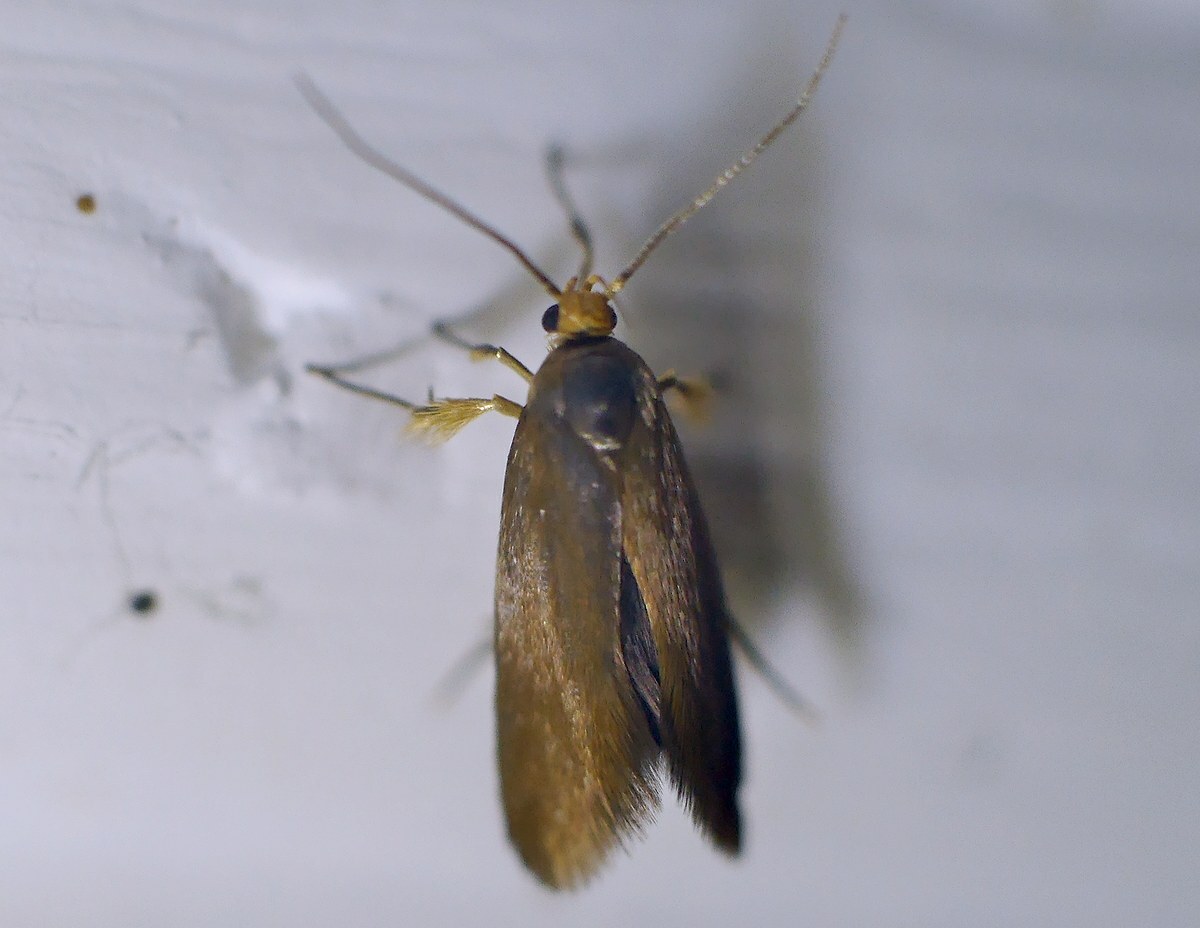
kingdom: Animalia
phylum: Arthropoda
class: Insecta
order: Lepidoptera
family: Oecophoridae
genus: Borkhausenia
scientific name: Borkhausenia Crassa unitella
